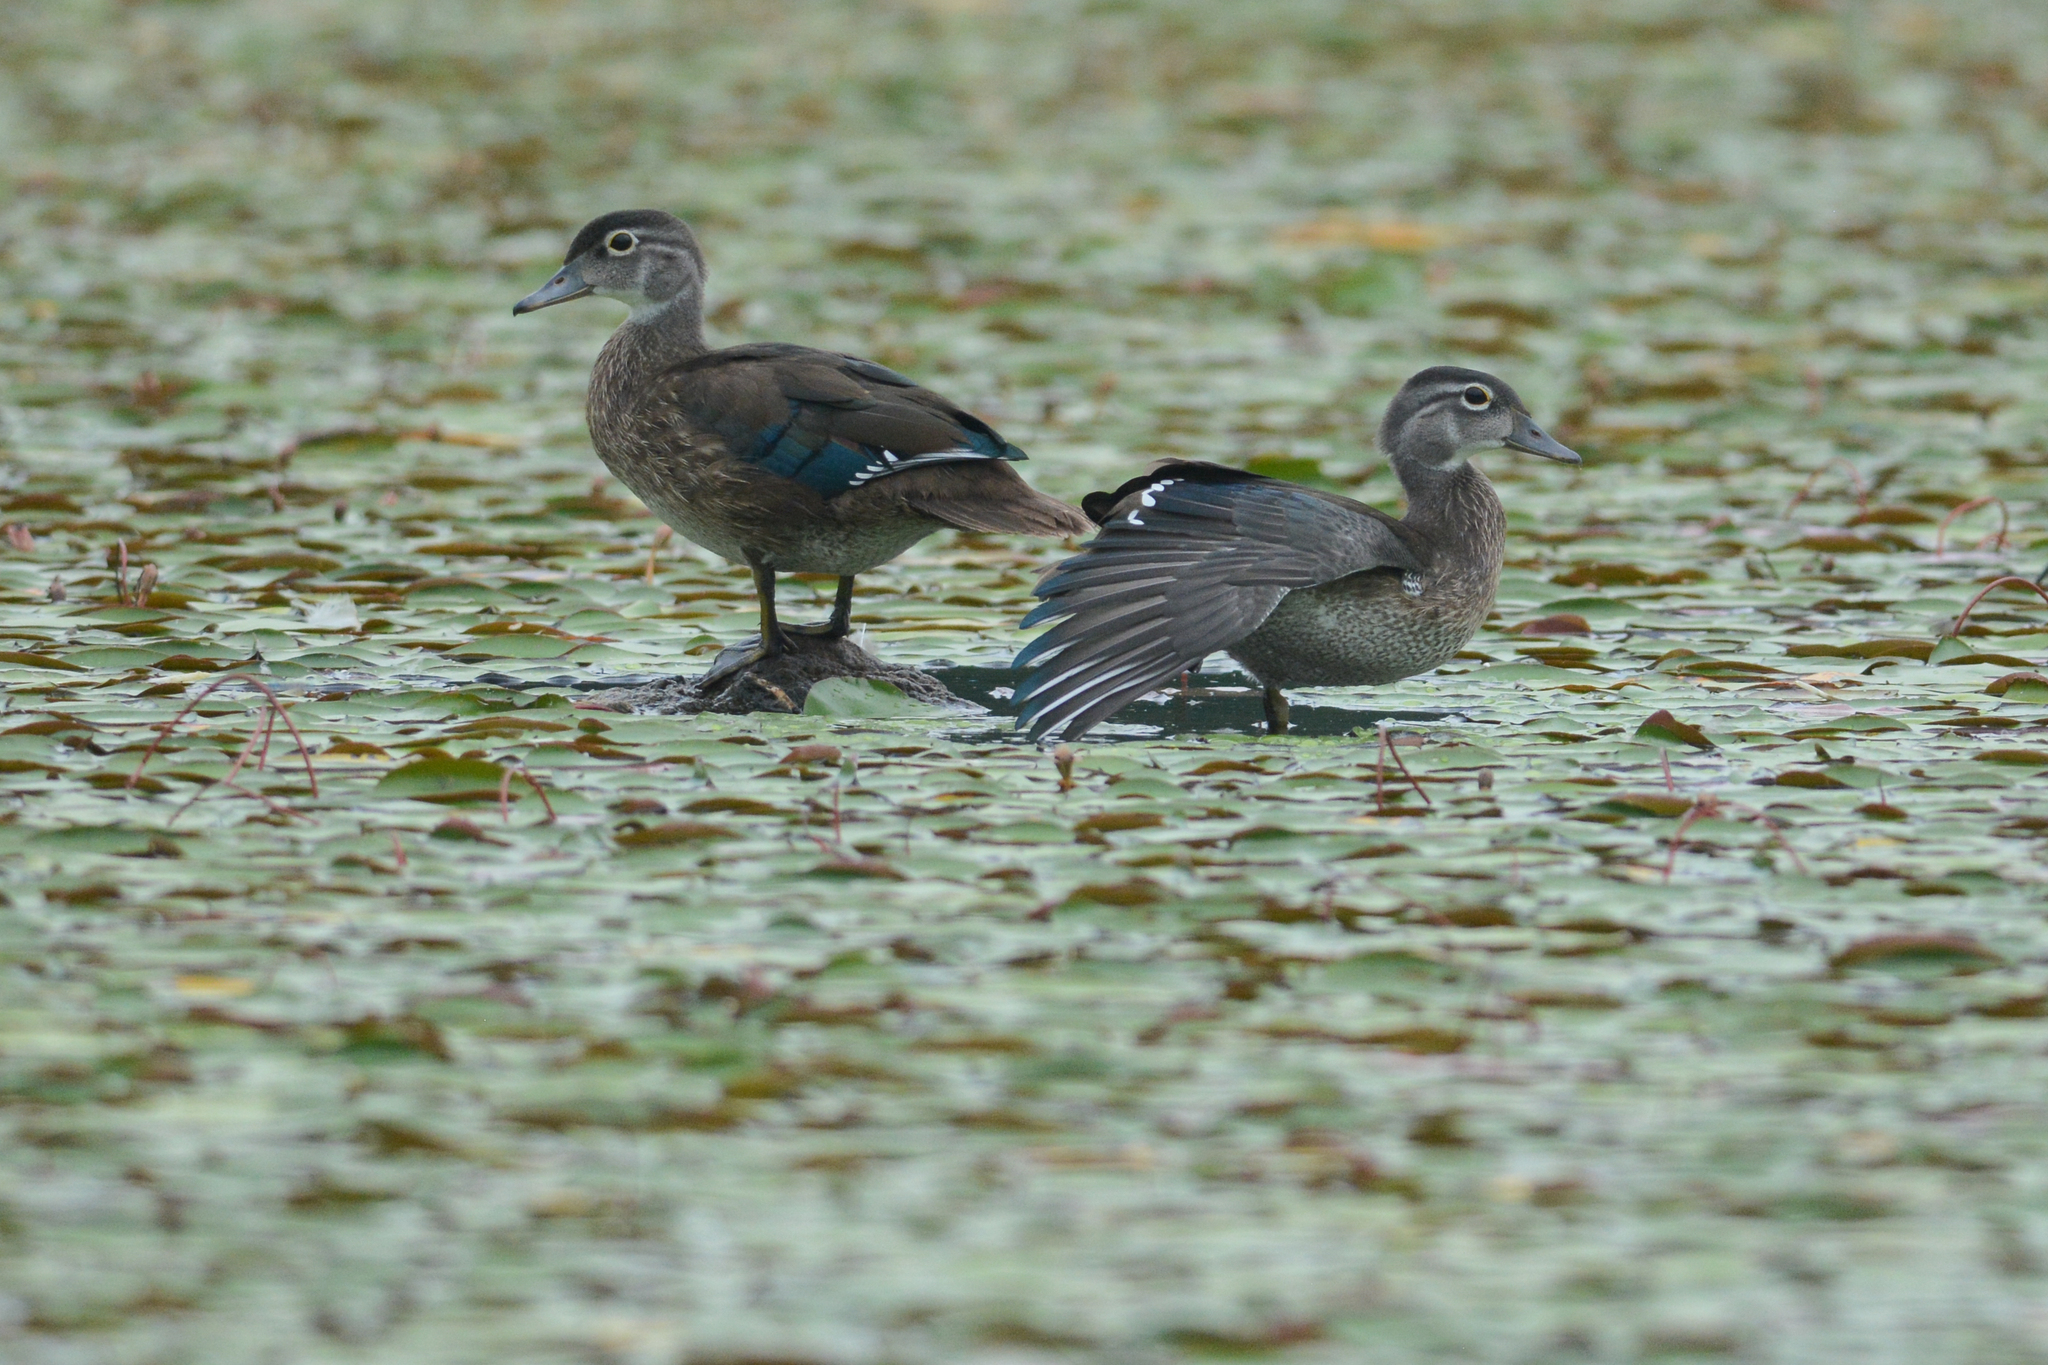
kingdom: Animalia
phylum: Chordata
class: Aves
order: Anseriformes
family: Anatidae
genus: Aix
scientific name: Aix sponsa
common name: Wood duck
